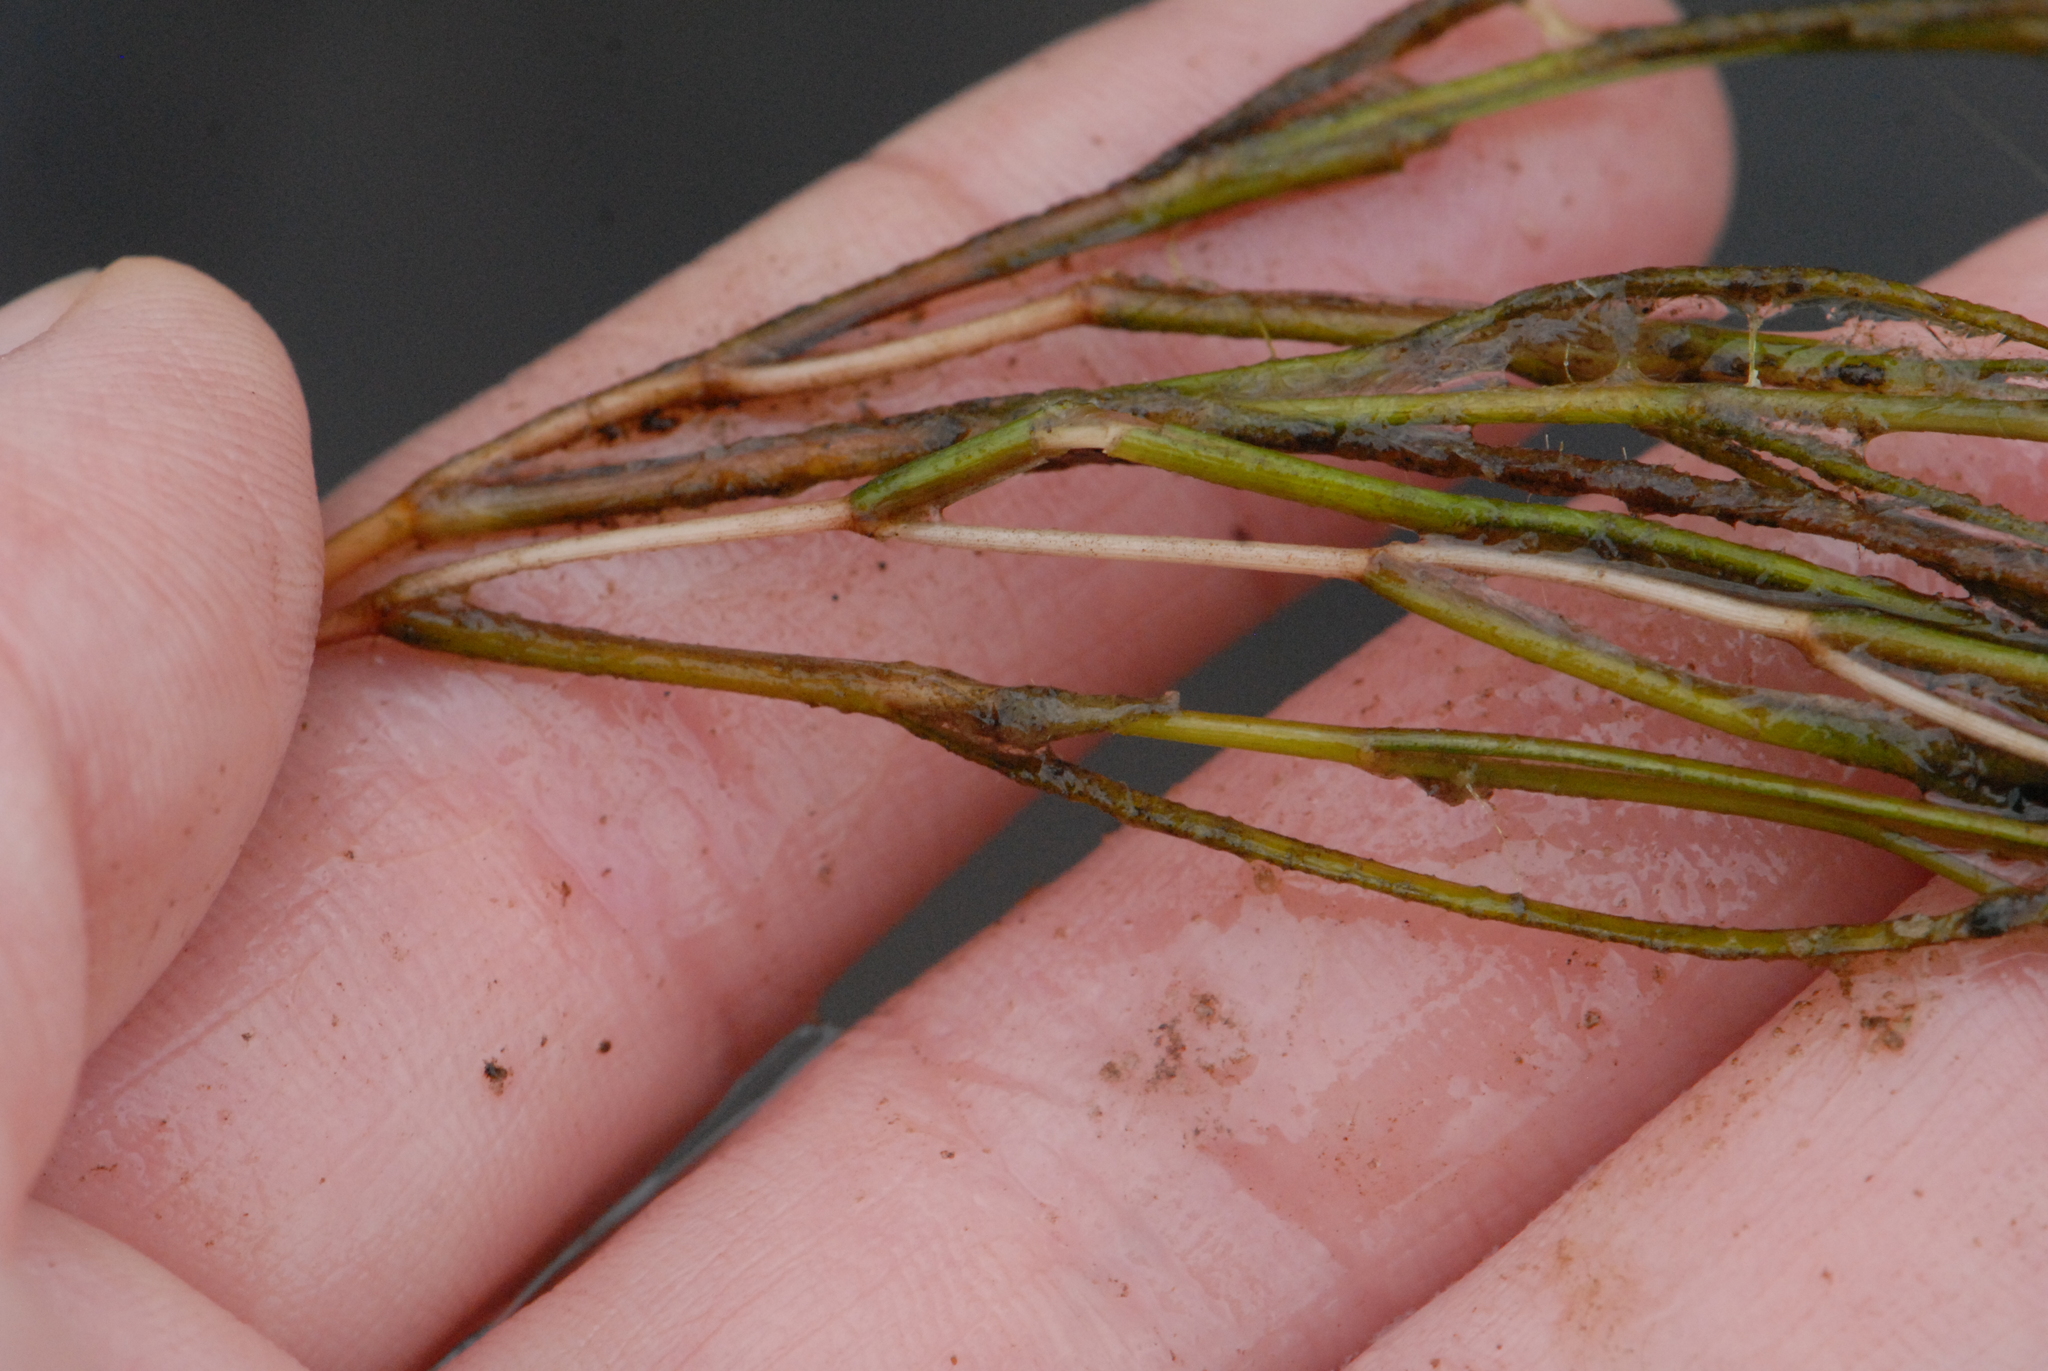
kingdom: Plantae
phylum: Tracheophyta
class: Liliopsida
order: Alismatales
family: Potamogetonaceae
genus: Stuckenia
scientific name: Stuckenia pectinata
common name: Sago pondweed
